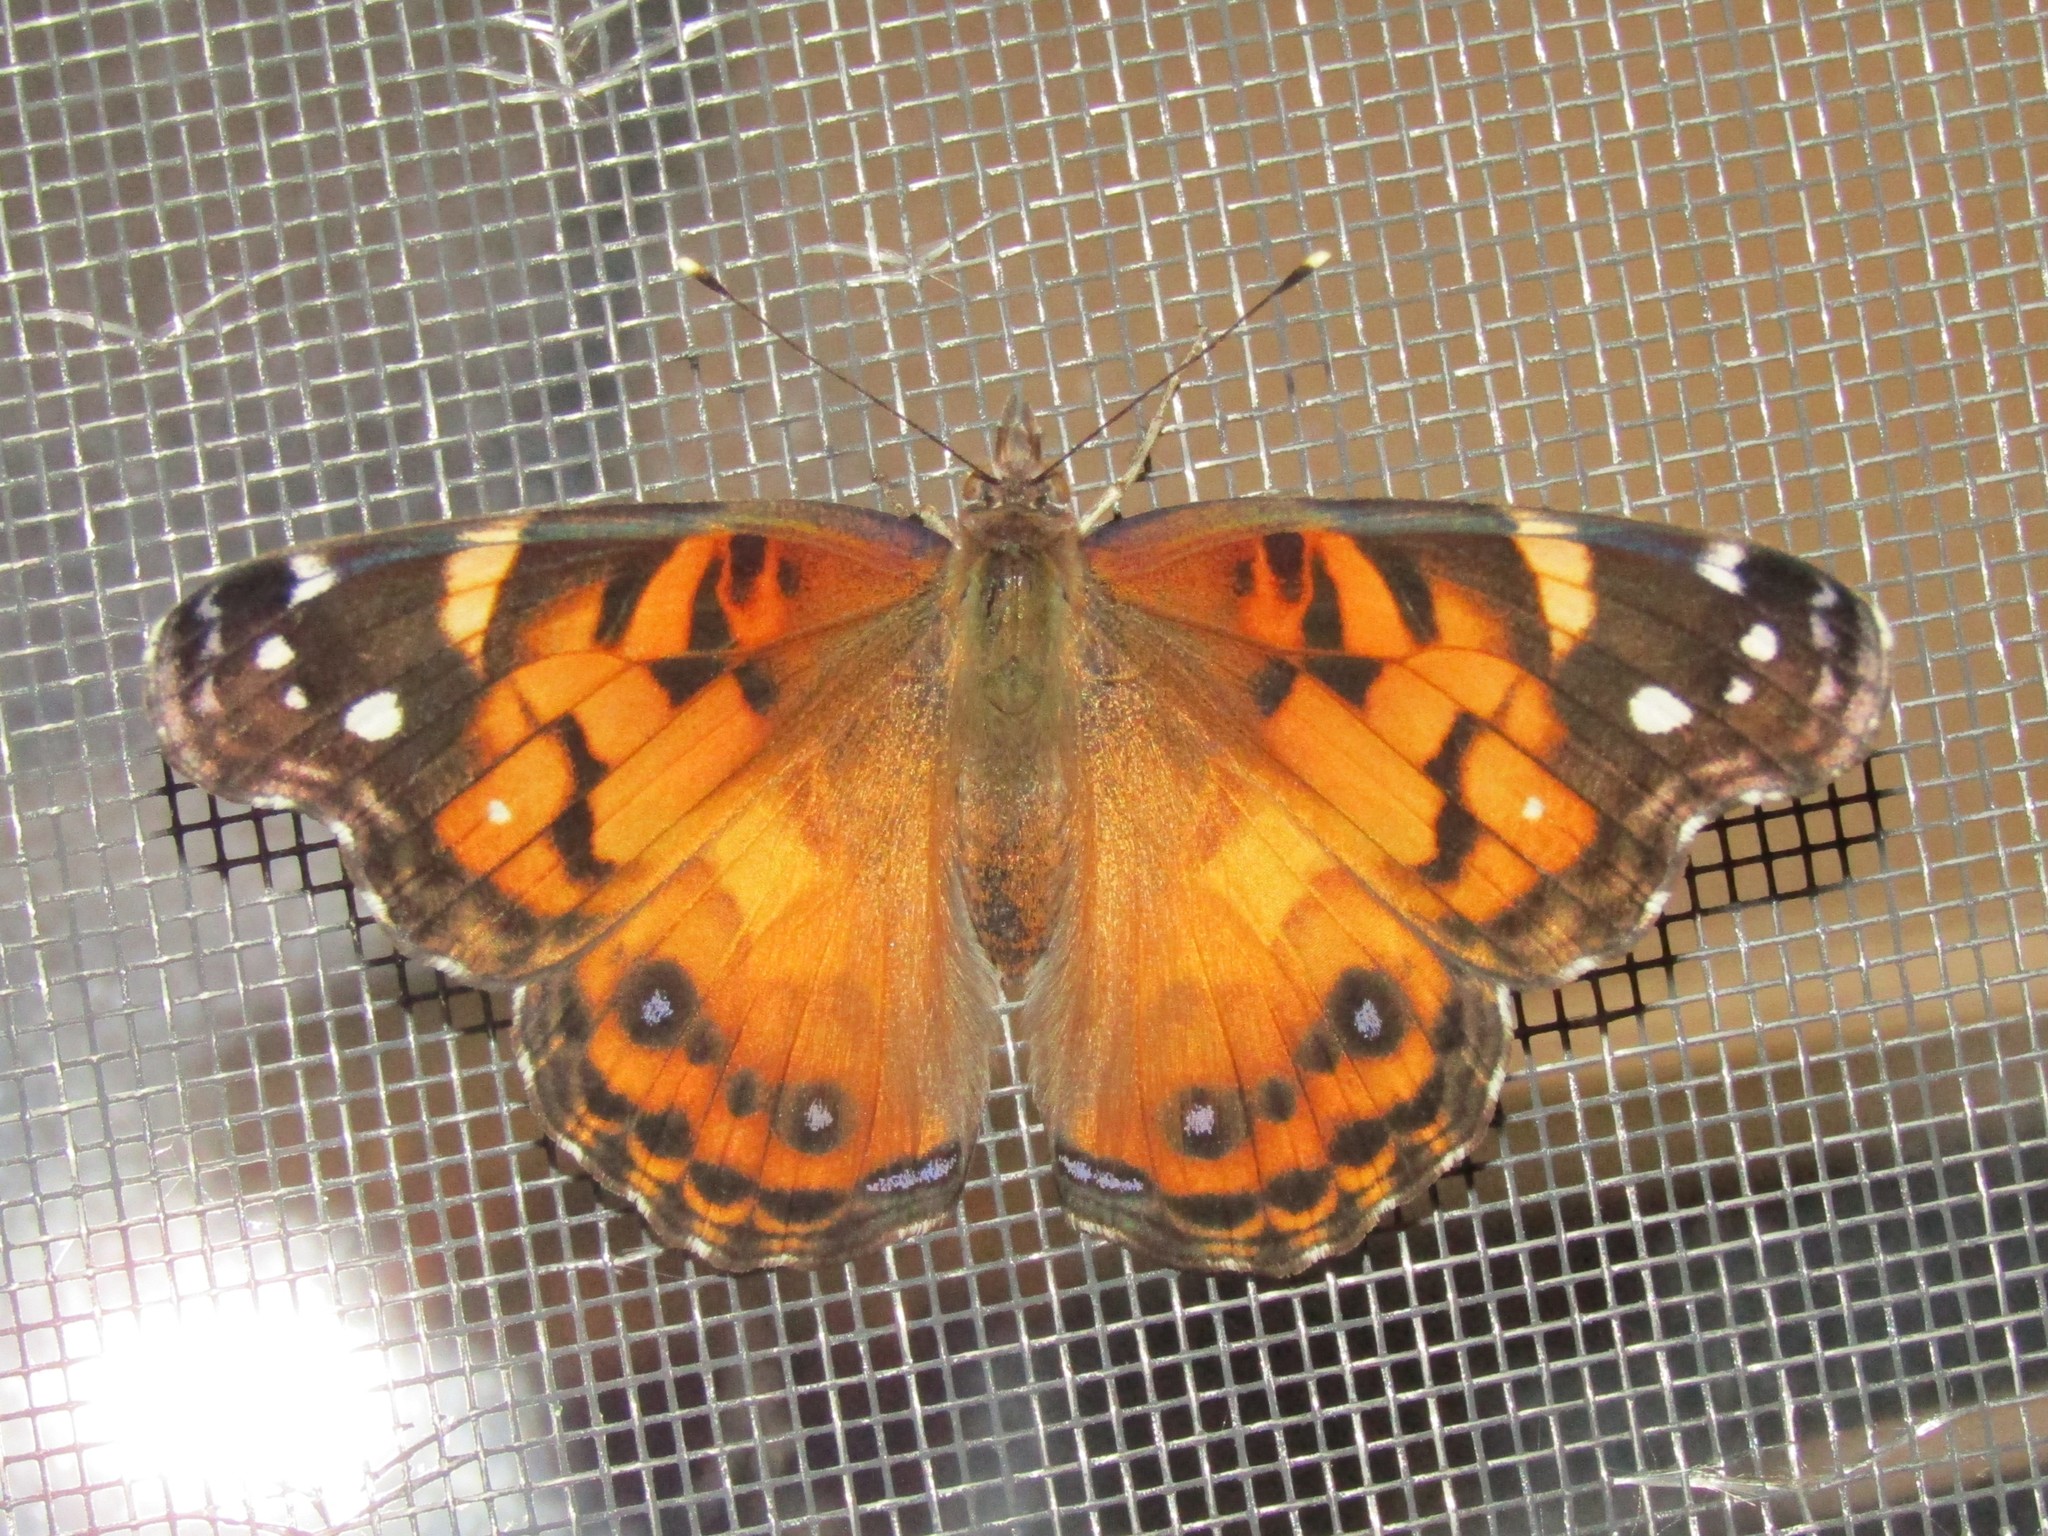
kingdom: Animalia
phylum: Arthropoda
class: Insecta
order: Lepidoptera
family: Nymphalidae
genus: Vanessa
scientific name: Vanessa virginiensis
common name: American lady
